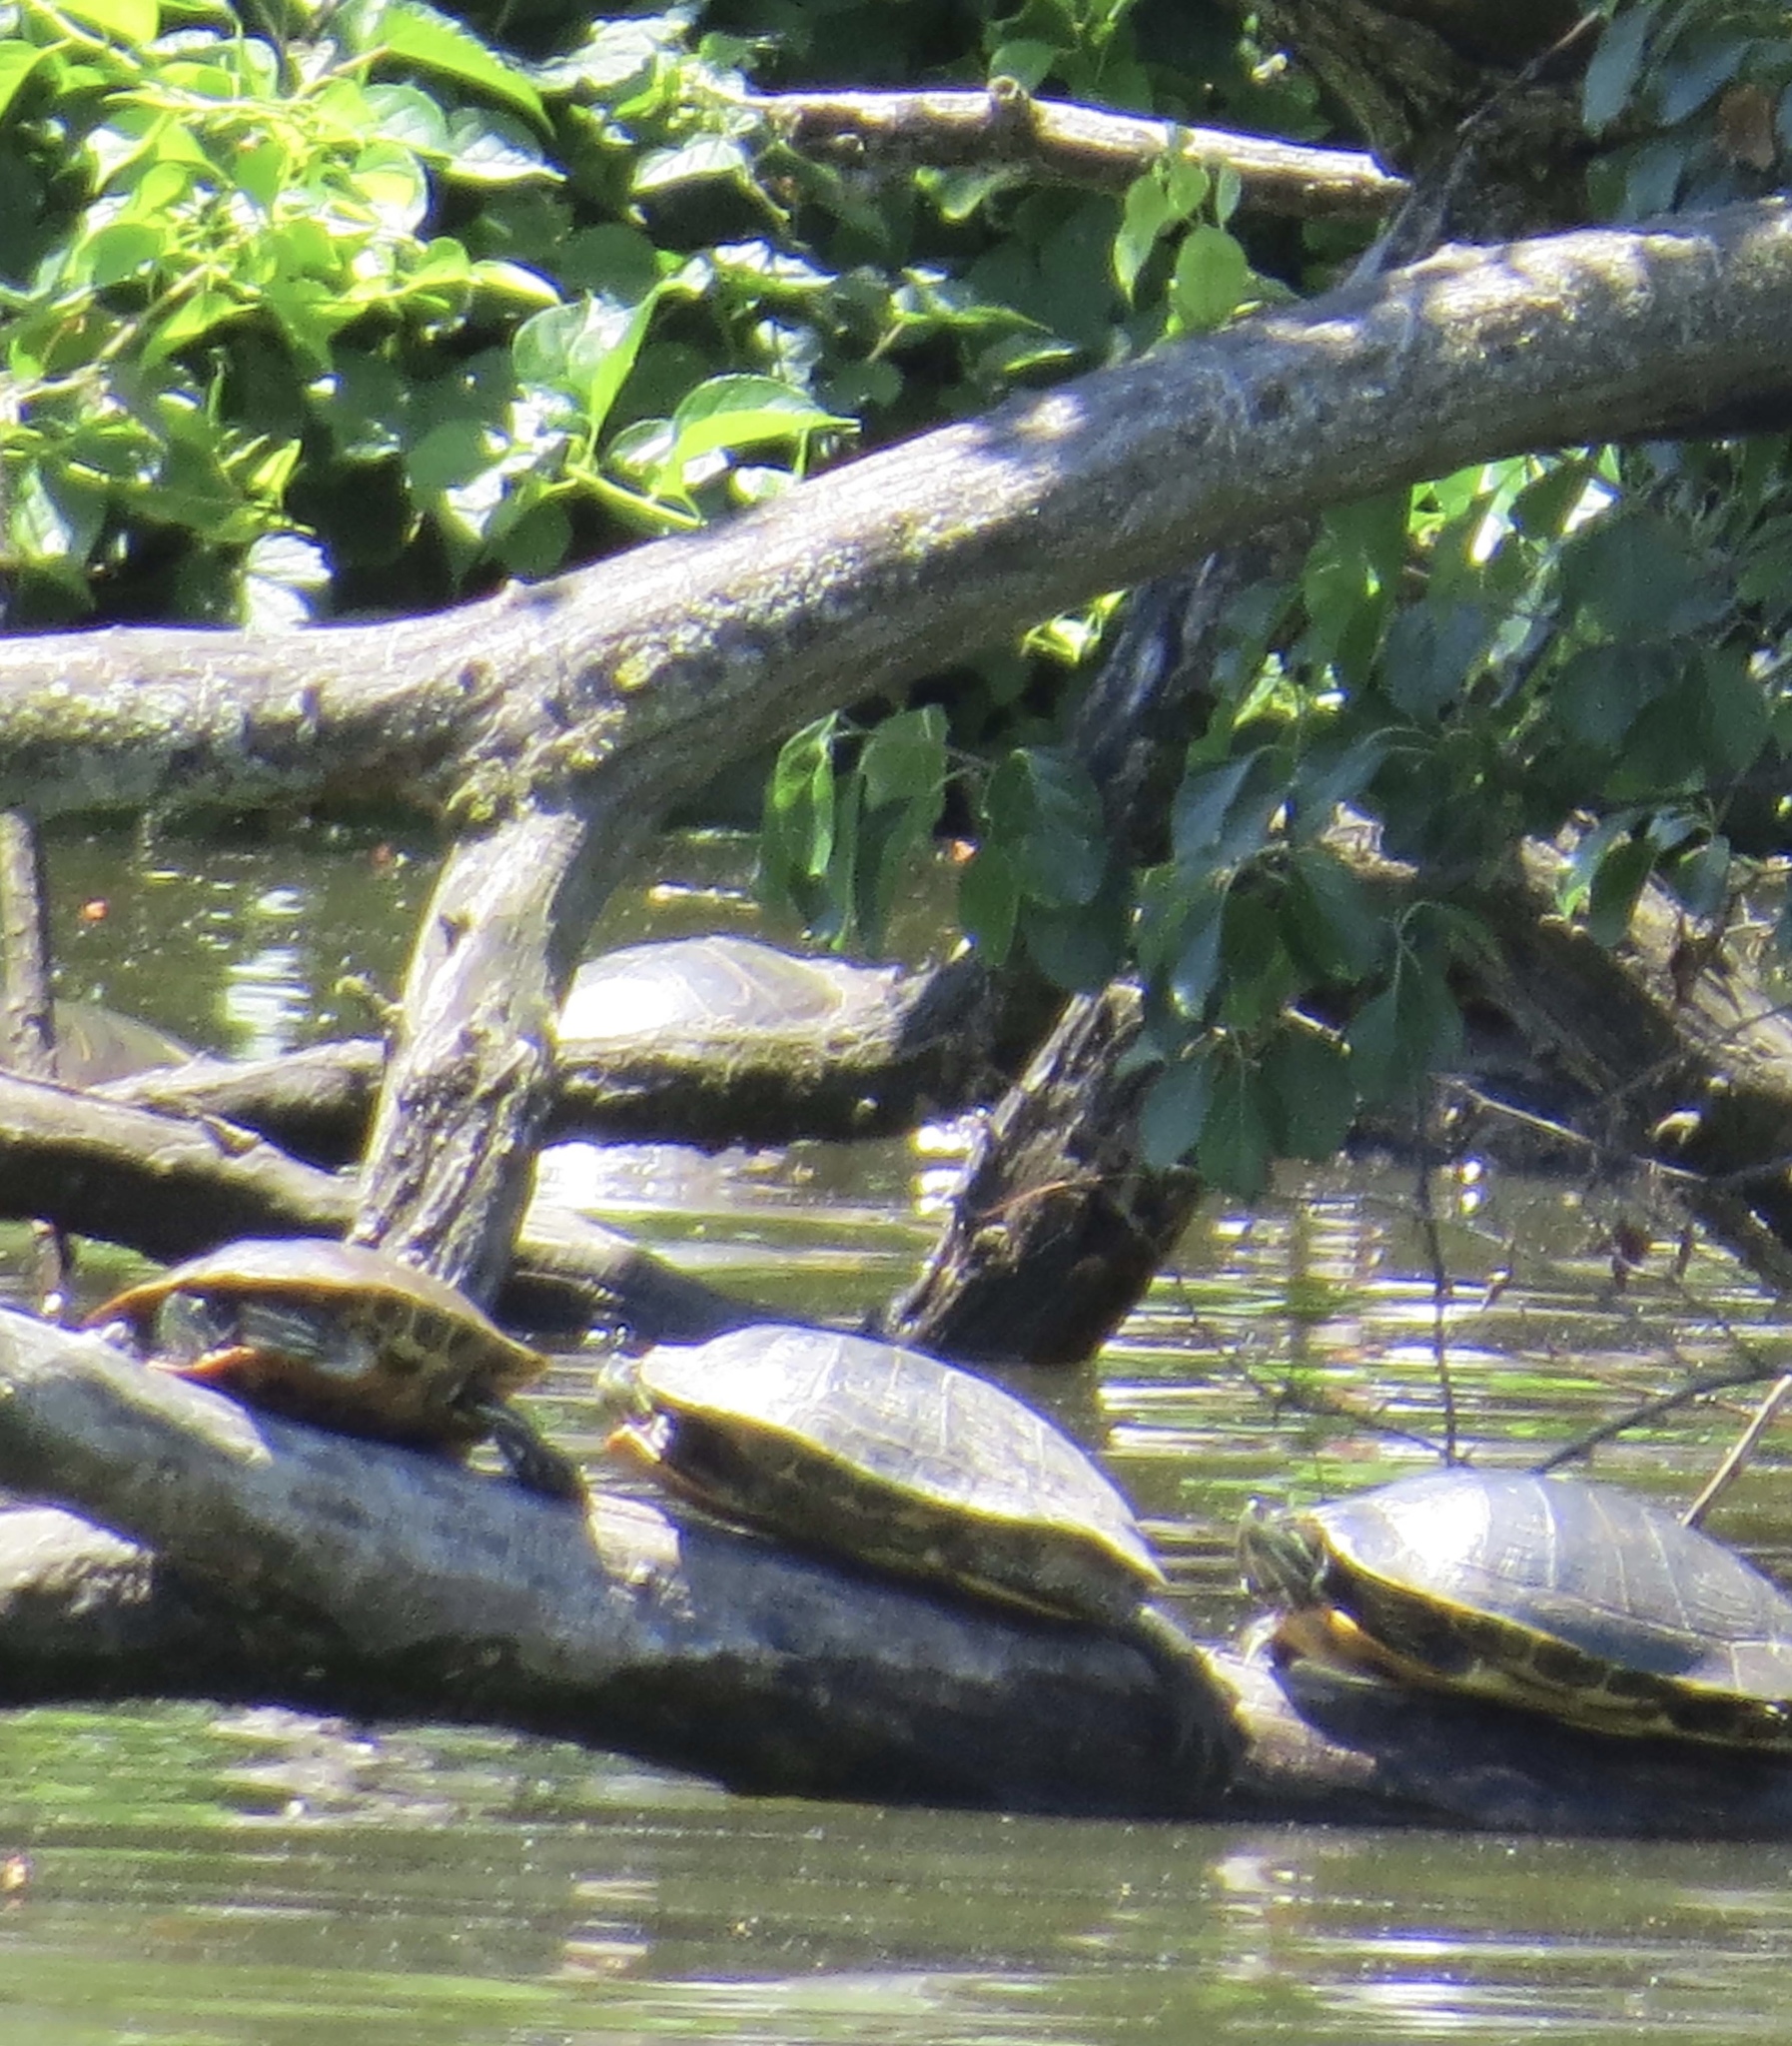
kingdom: Animalia
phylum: Chordata
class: Testudines
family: Emydidae
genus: Trachemys
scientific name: Trachemys scripta
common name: Slider
